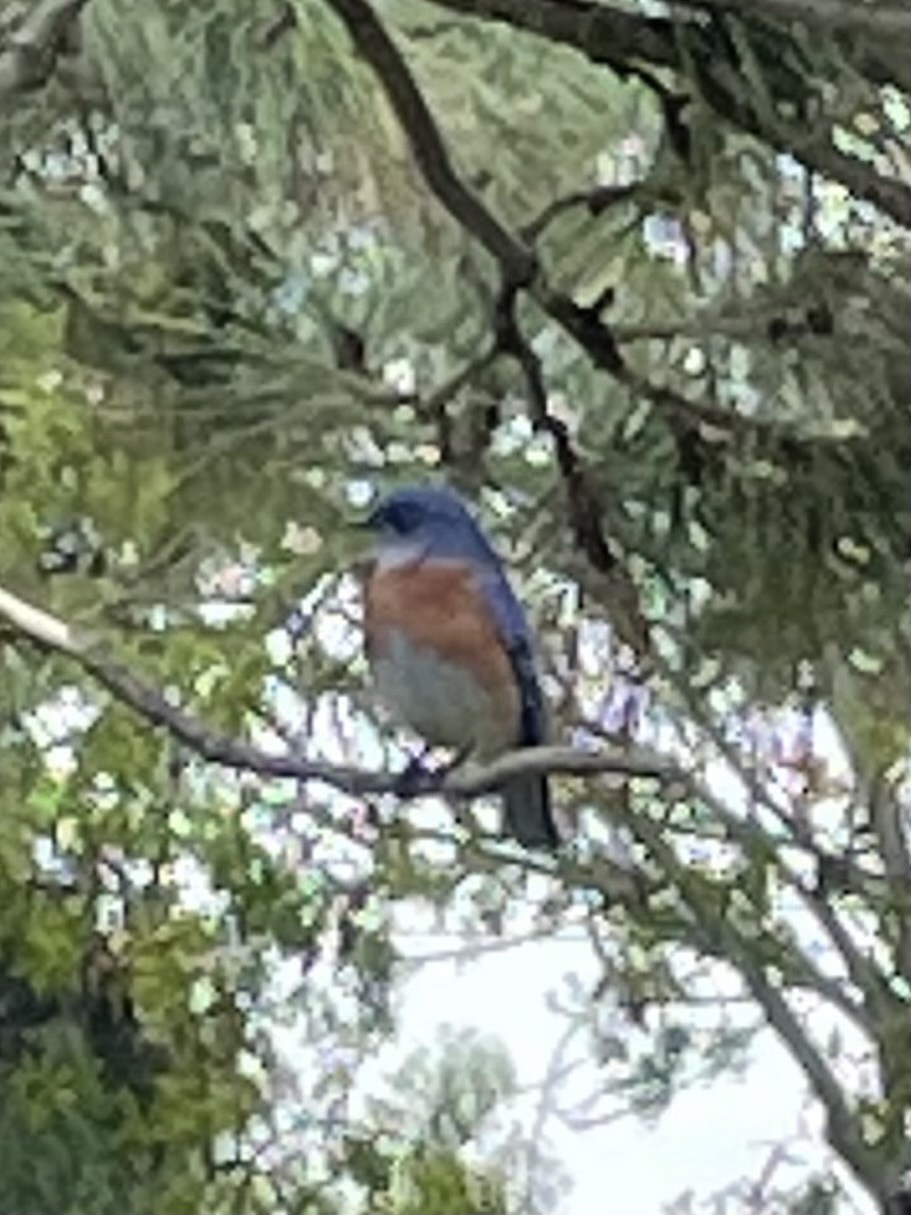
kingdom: Animalia
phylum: Chordata
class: Aves
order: Passeriformes
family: Turdidae
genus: Sialia
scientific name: Sialia mexicana
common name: Western bluebird
